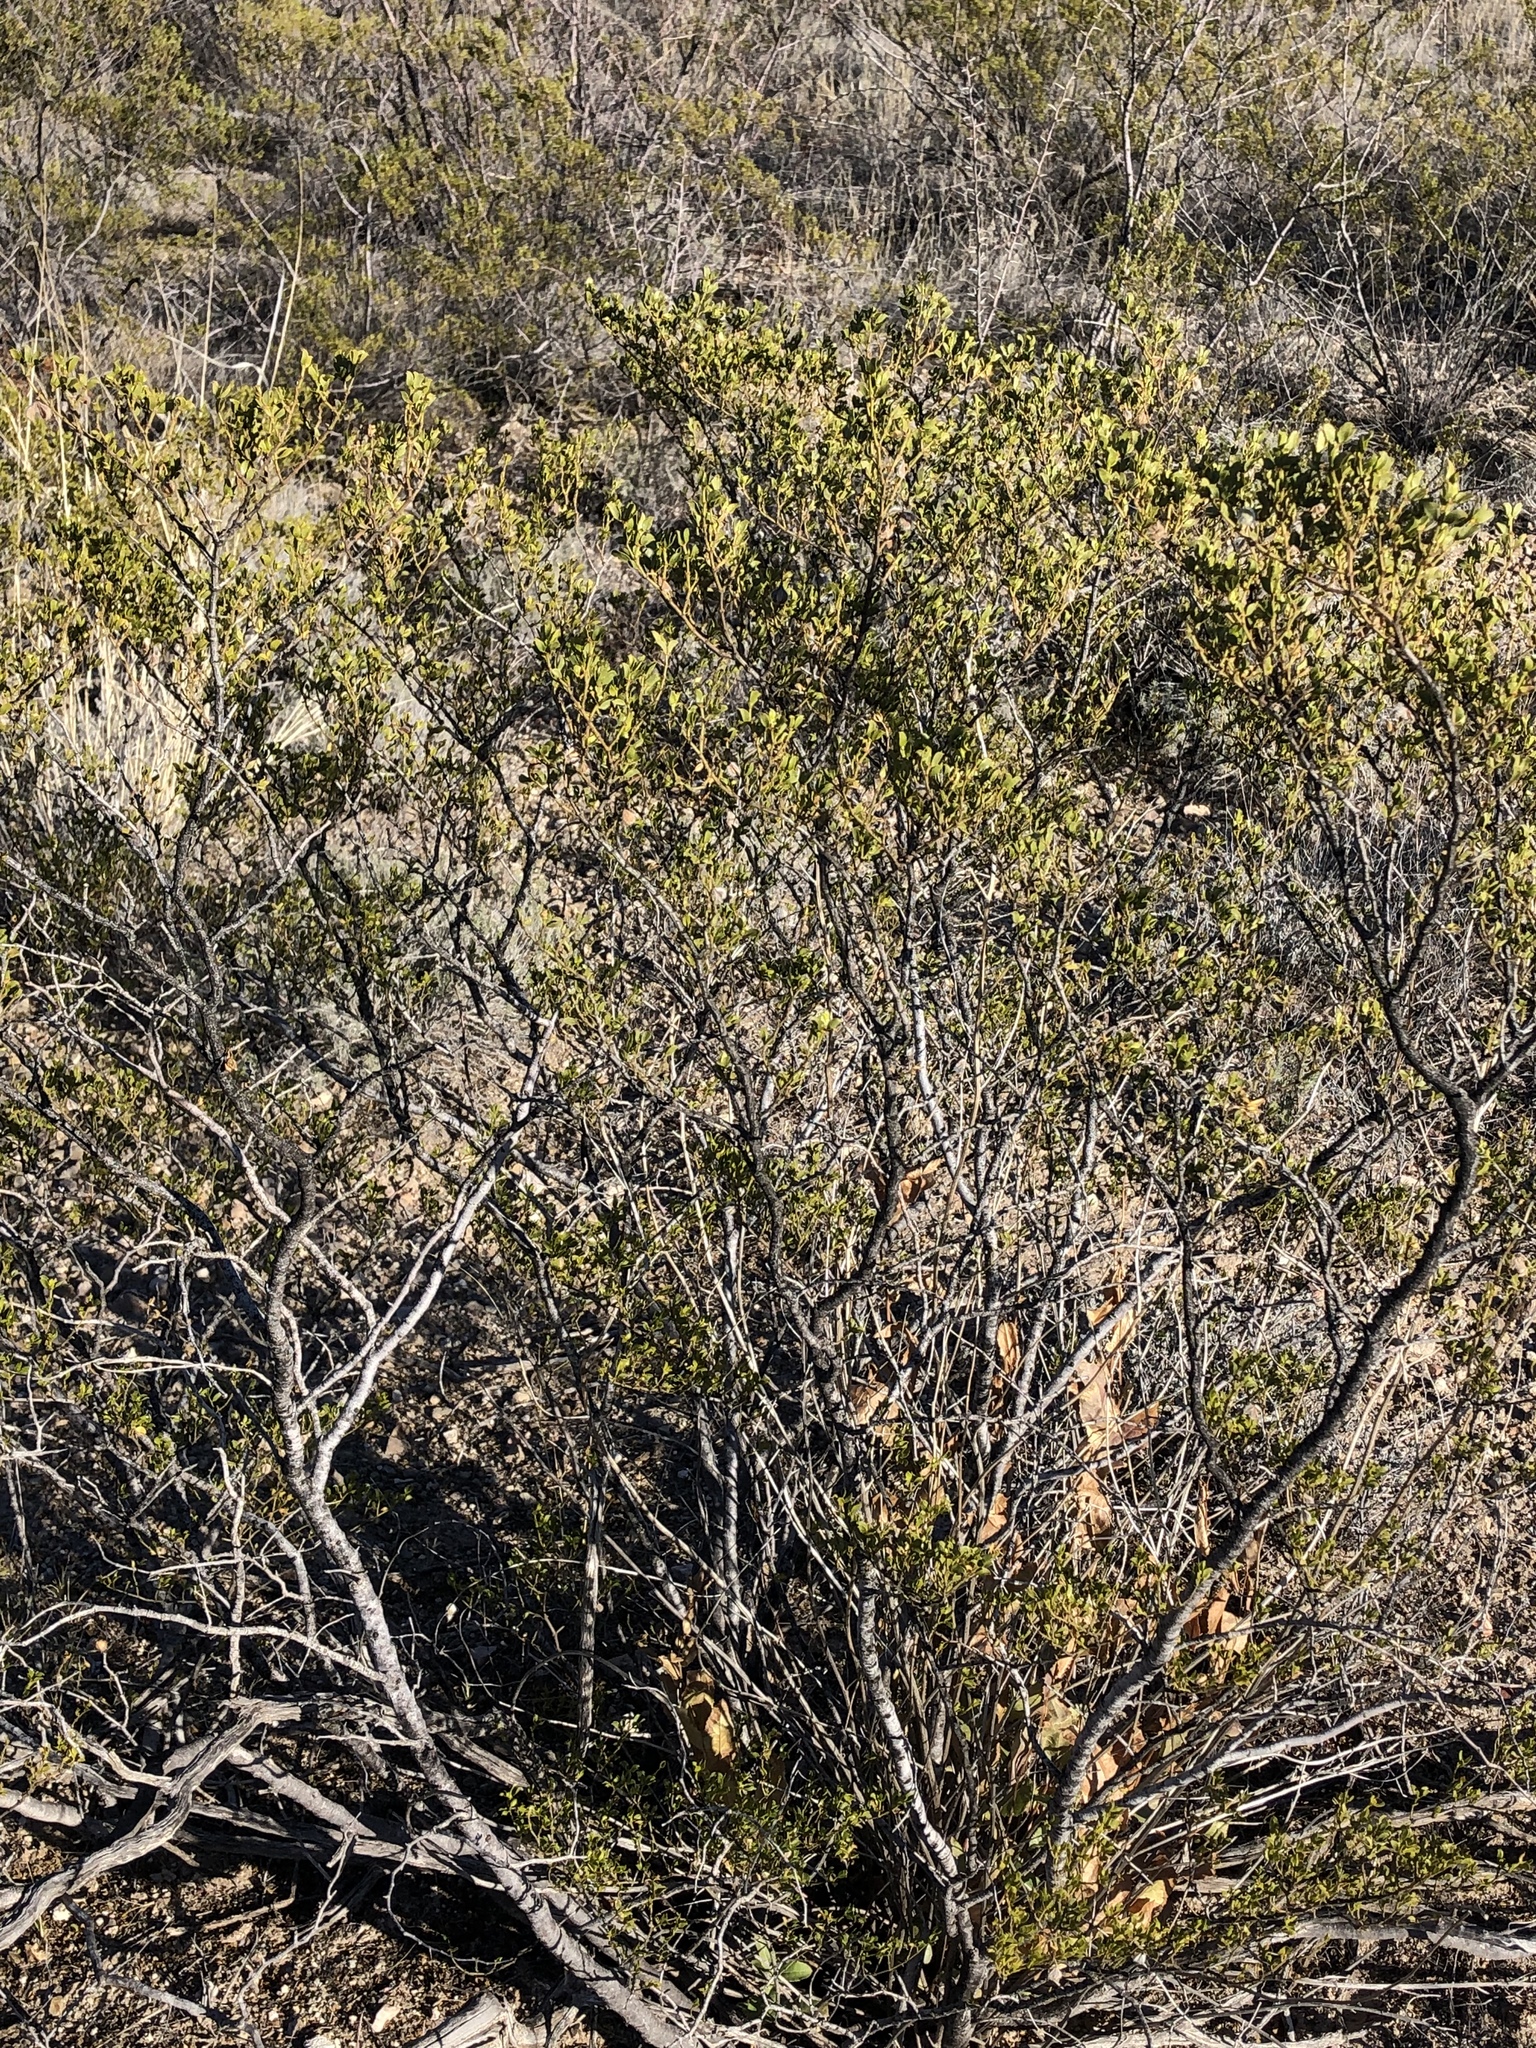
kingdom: Plantae
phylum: Tracheophyta
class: Magnoliopsida
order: Zygophyllales
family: Zygophyllaceae
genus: Larrea
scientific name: Larrea tridentata
